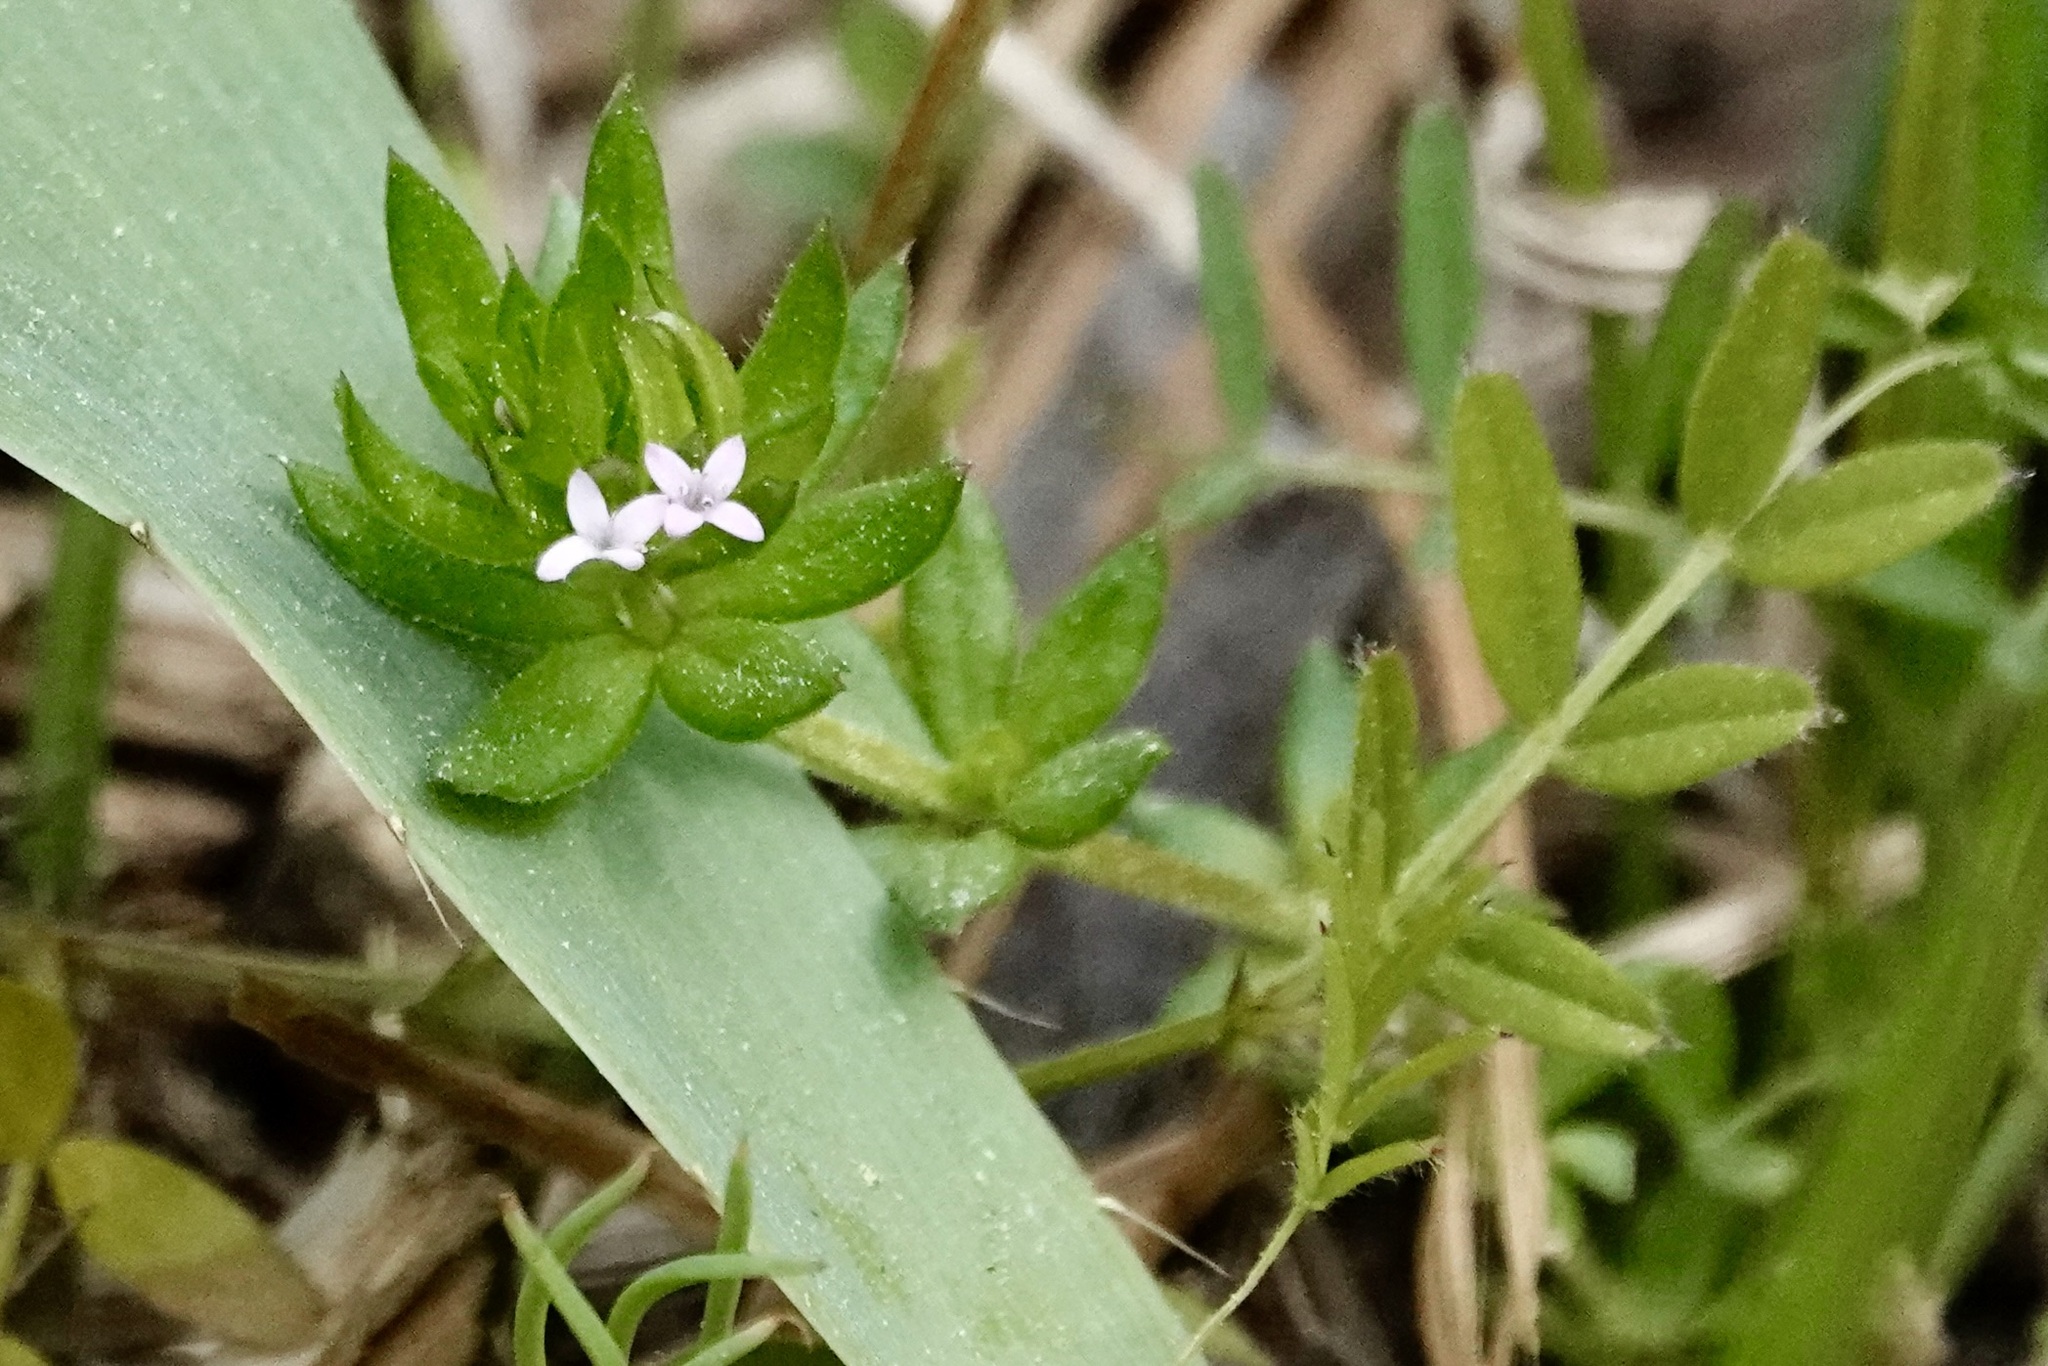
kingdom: Plantae
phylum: Tracheophyta
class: Magnoliopsida
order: Gentianales
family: Rubiaceae
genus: Sherardia
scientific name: Sherardia arvensis
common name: Field madder
